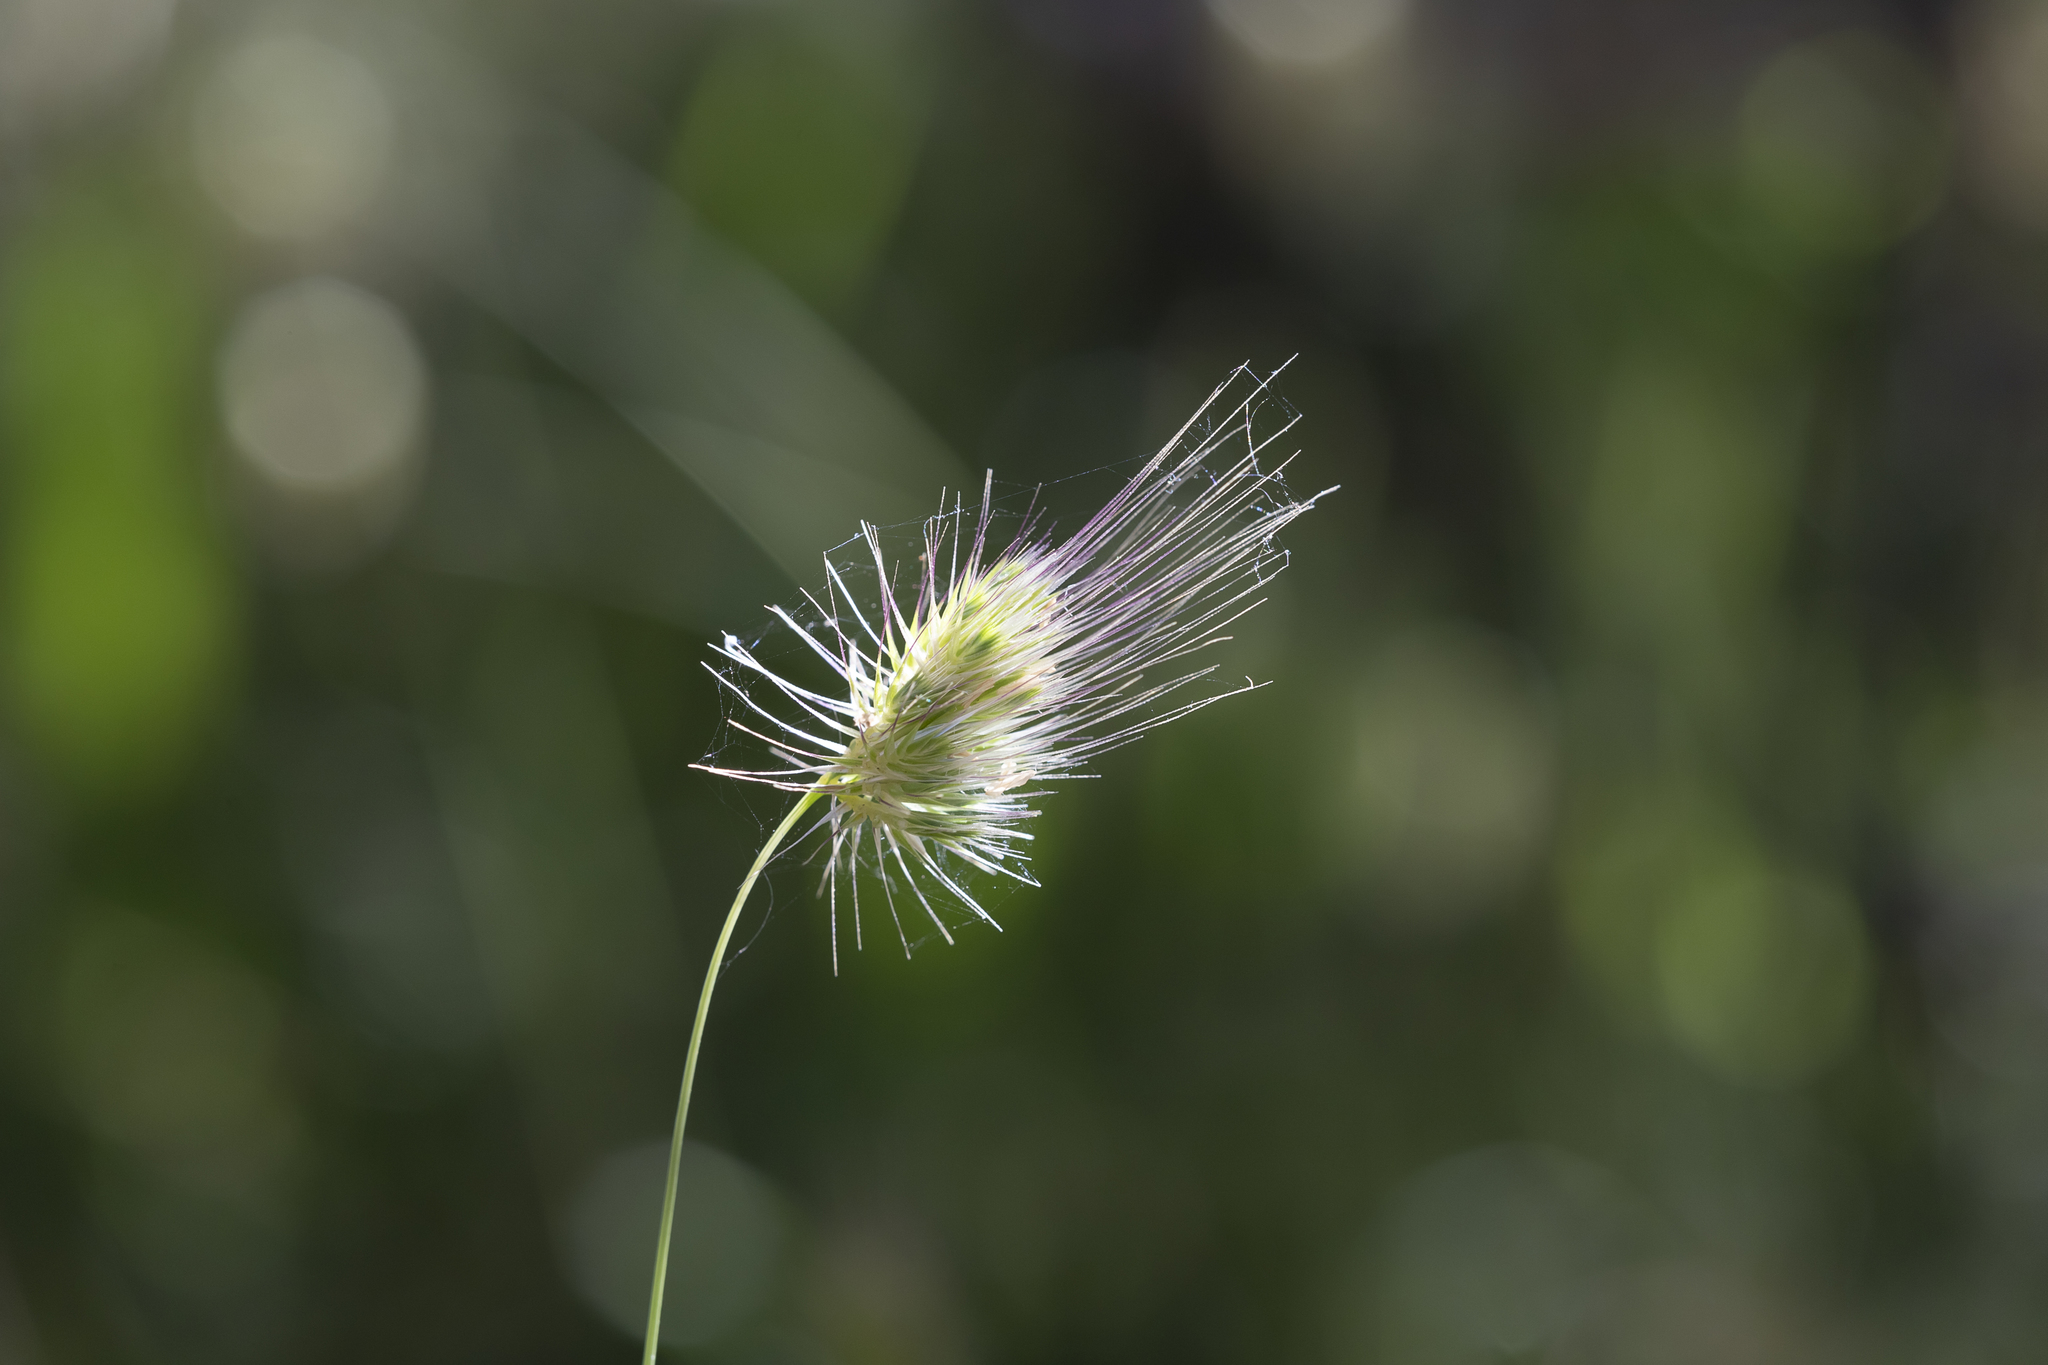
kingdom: Plantae
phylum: Tracheophyta
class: Liliopsida
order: Poales
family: Poaceae
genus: Cynosurus
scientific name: Cynosurus echinatus
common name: Rough dog's-tail
